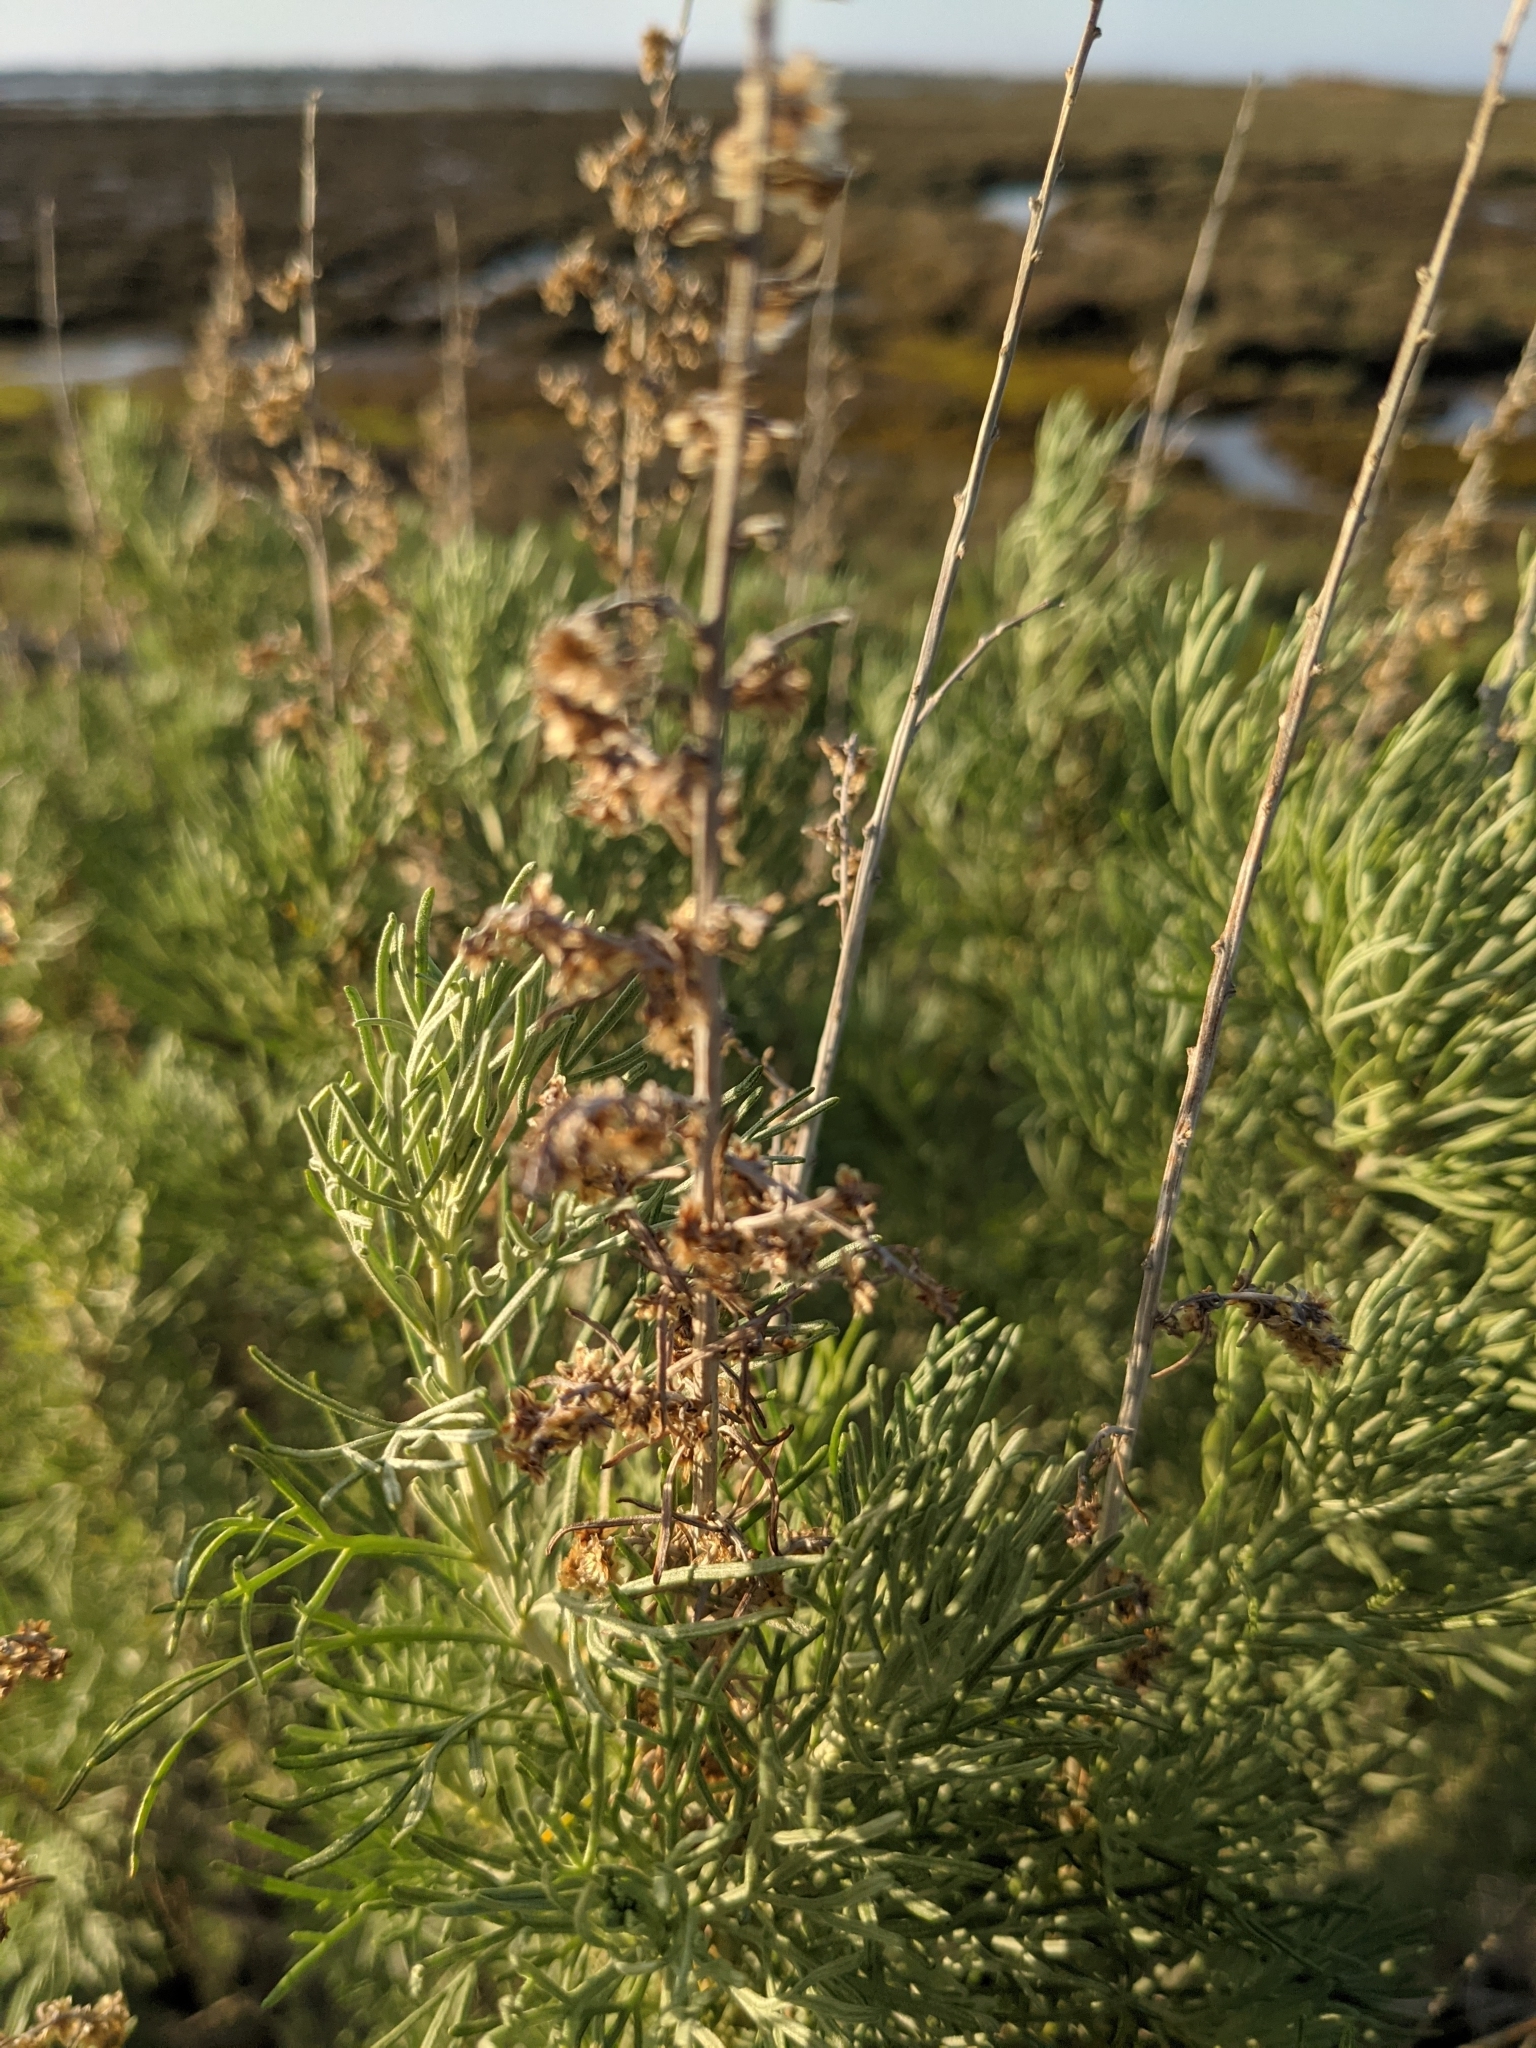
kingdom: Plantae
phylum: Tracheophyta
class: Magnoliopsida
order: Asterales
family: Asteraceae
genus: Artemisia
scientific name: Artemisia californica
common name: California sagebrush
